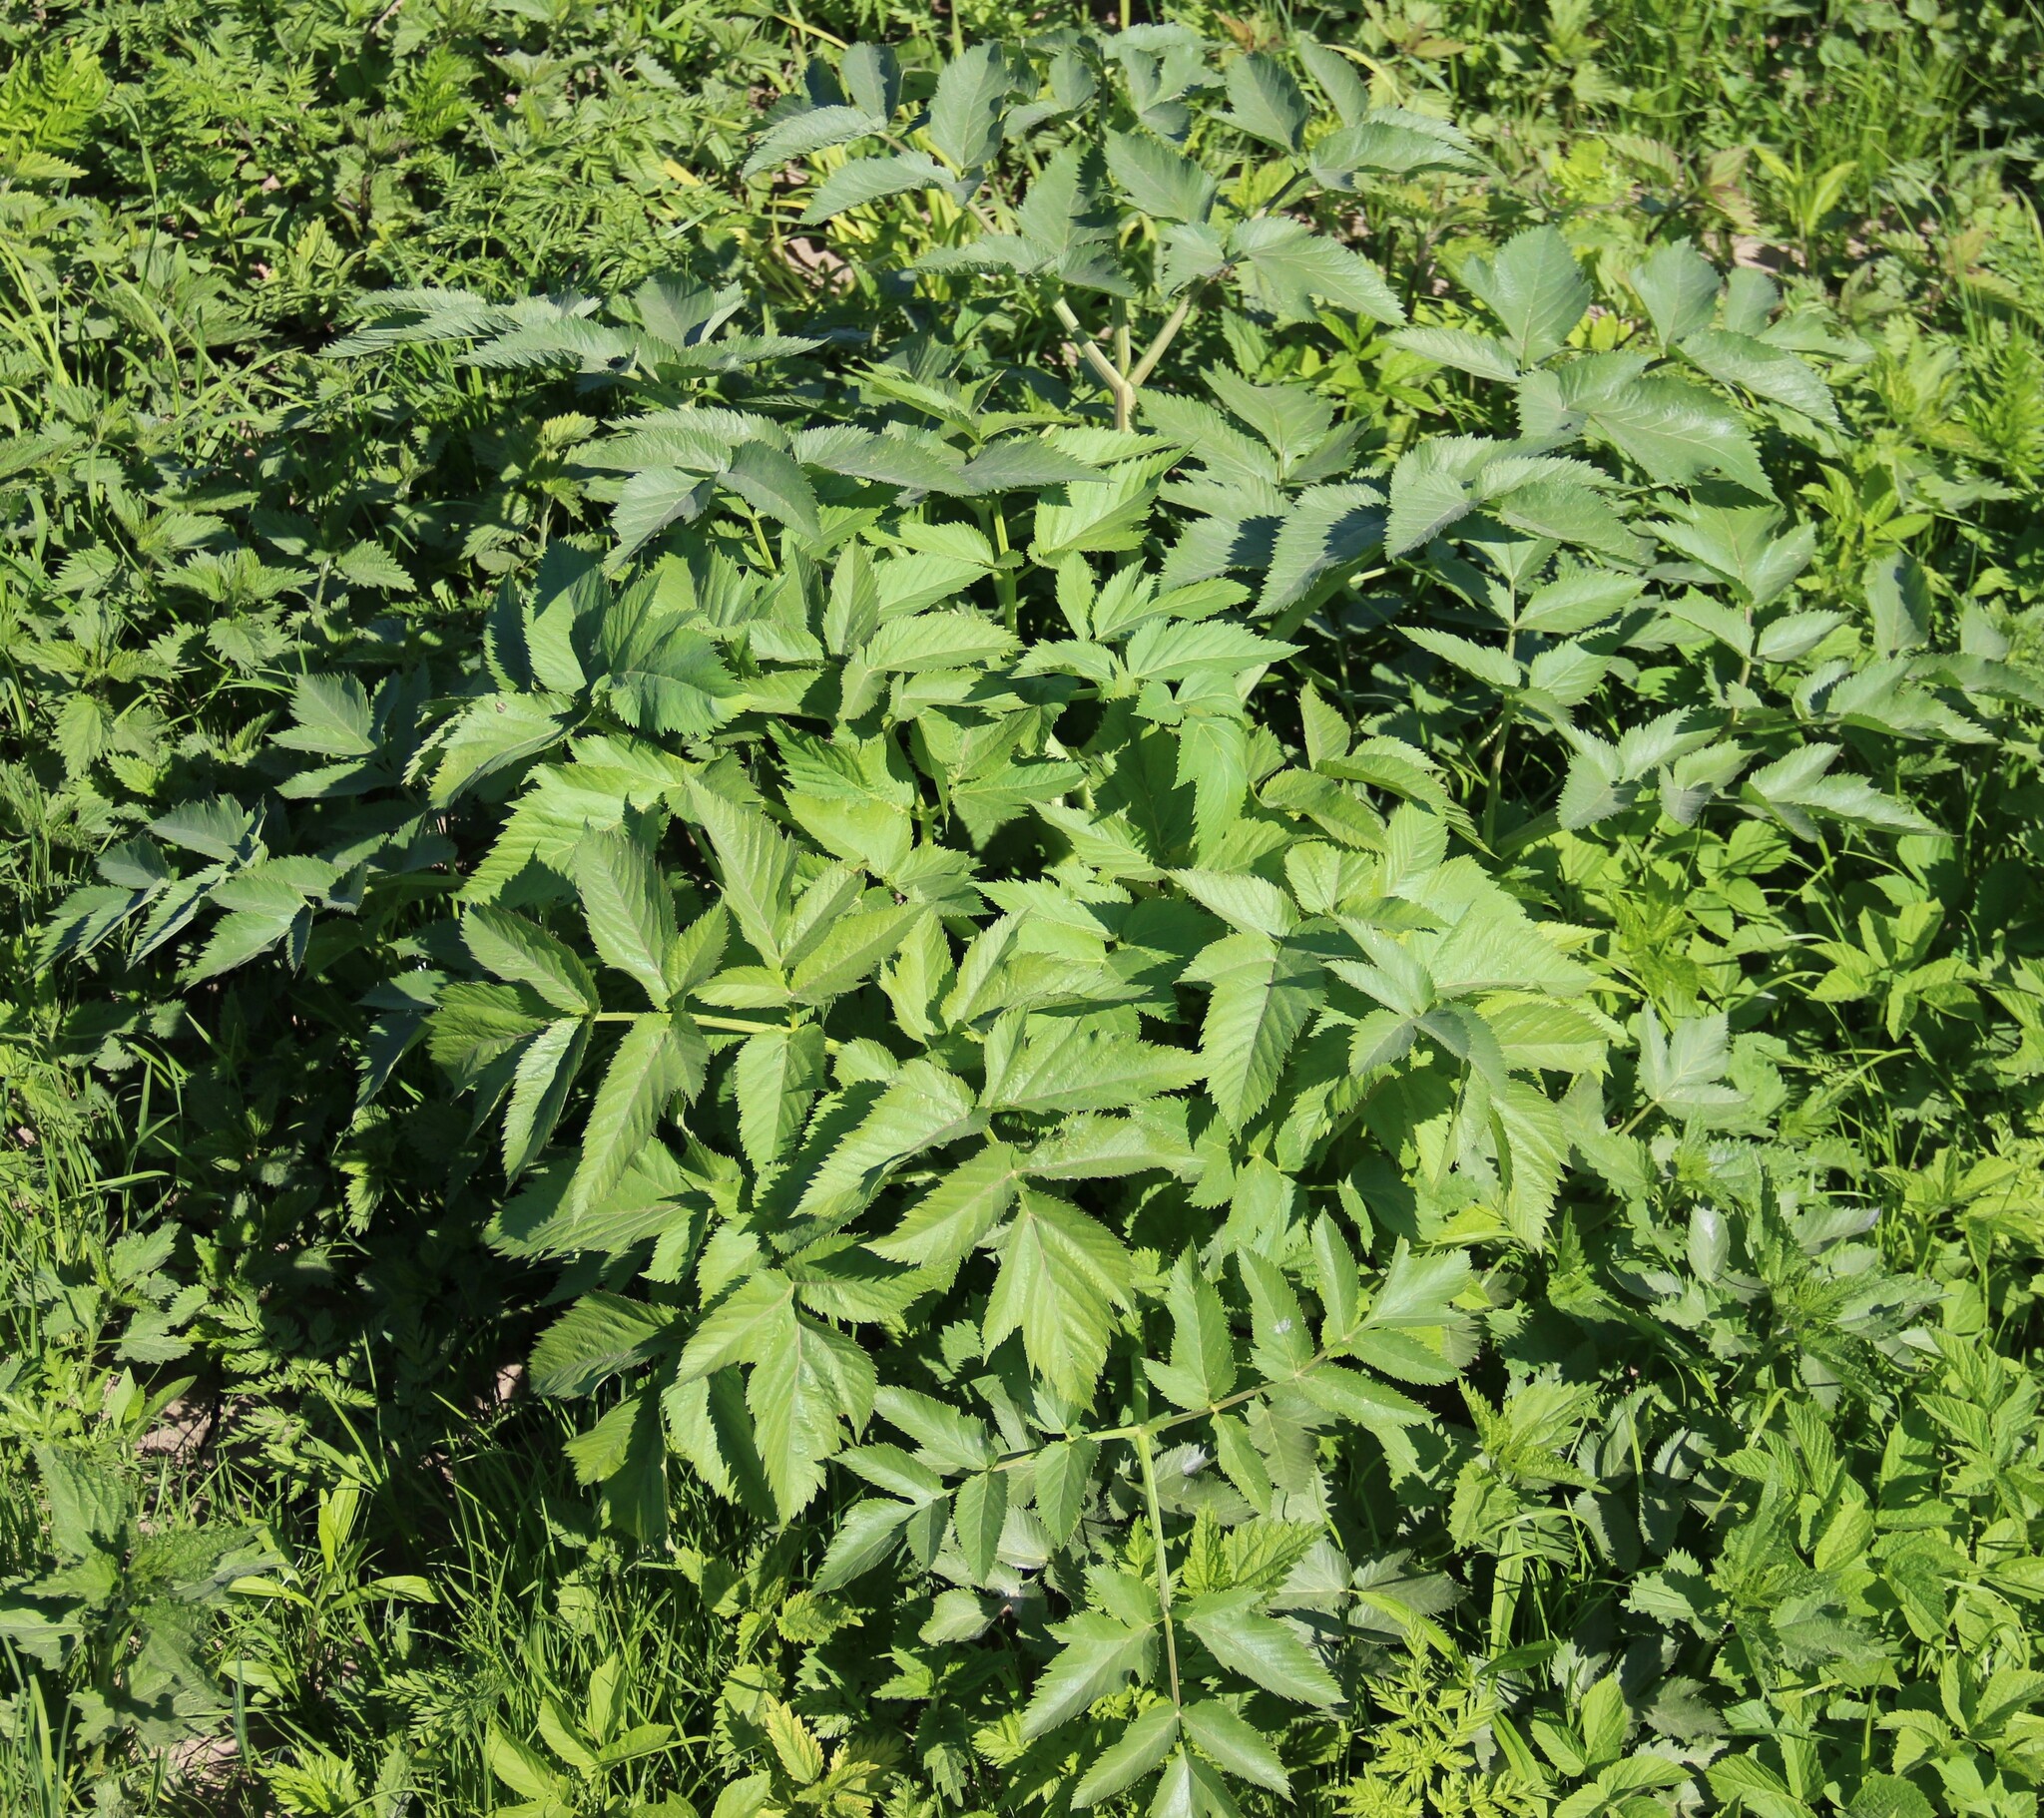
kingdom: Plantae
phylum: Tracheophyta
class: Magnoliopsida
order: Apiales
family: Apiaceae
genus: Angelica
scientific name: Angelica archangelica
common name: Garden angelica
